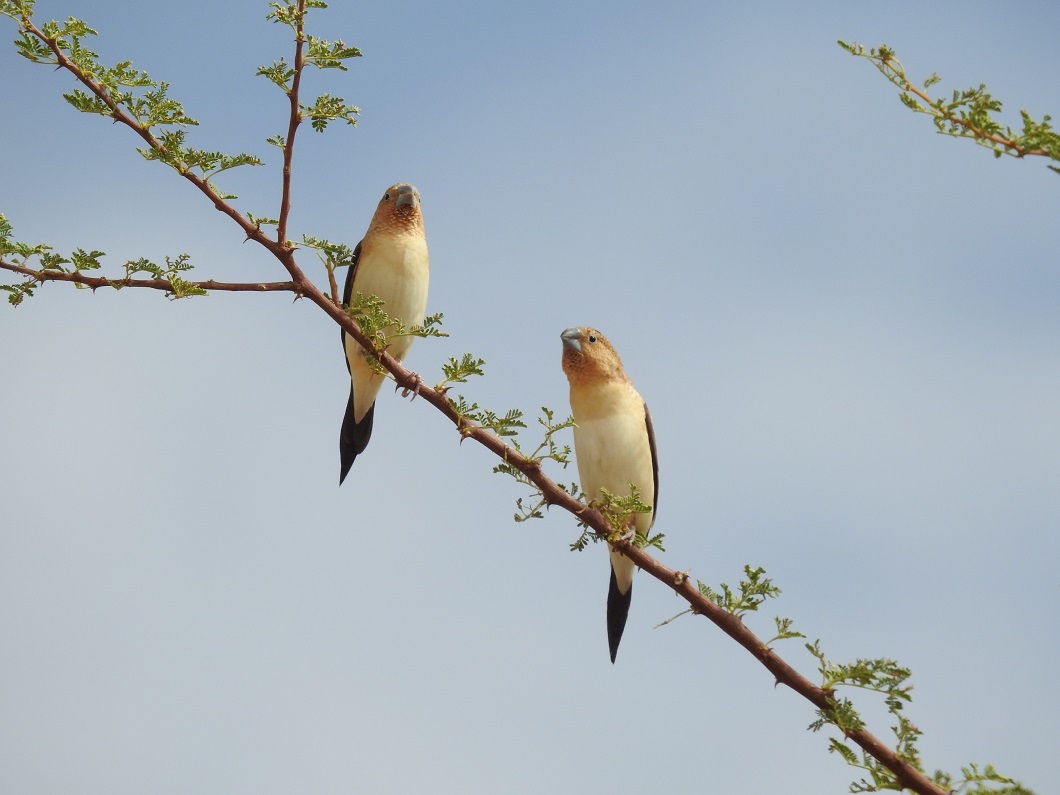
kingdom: Animalia
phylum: Chordata
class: Aves
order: Passeriformes
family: Estrildidae
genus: Euodice
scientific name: Euodice cantans
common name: African silverbill
